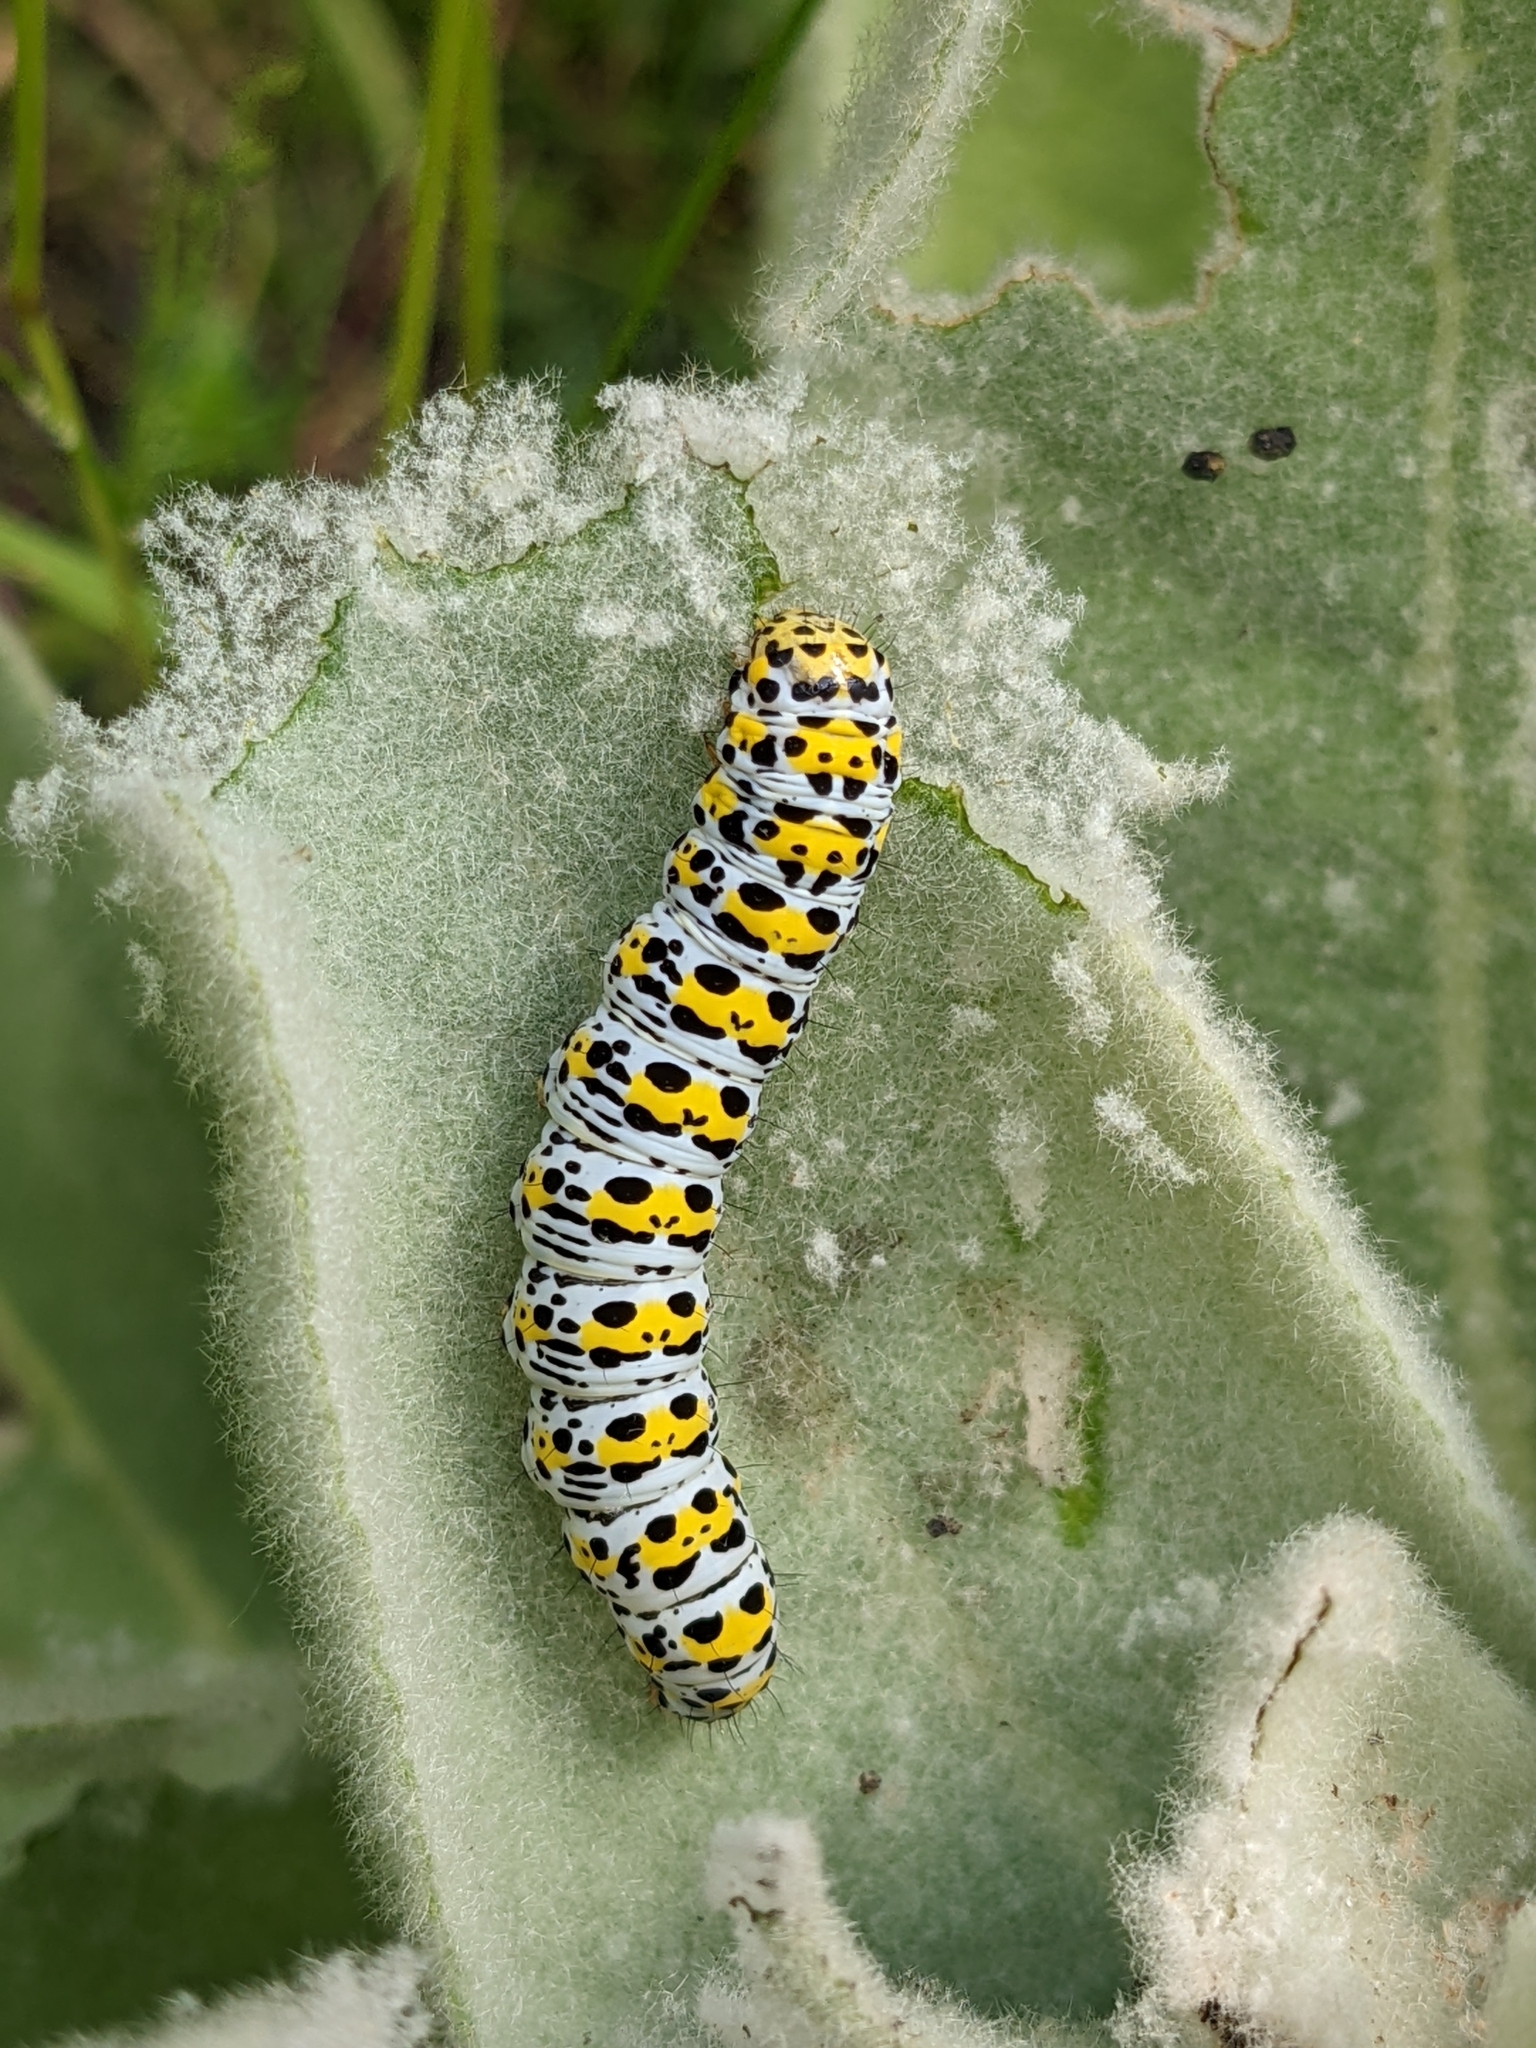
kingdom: Animalia
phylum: Arthropoda
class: Insecta
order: Lepidoptera
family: Noctuidae
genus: Cucullia
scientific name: Cucullia verbasci
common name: Mullein
